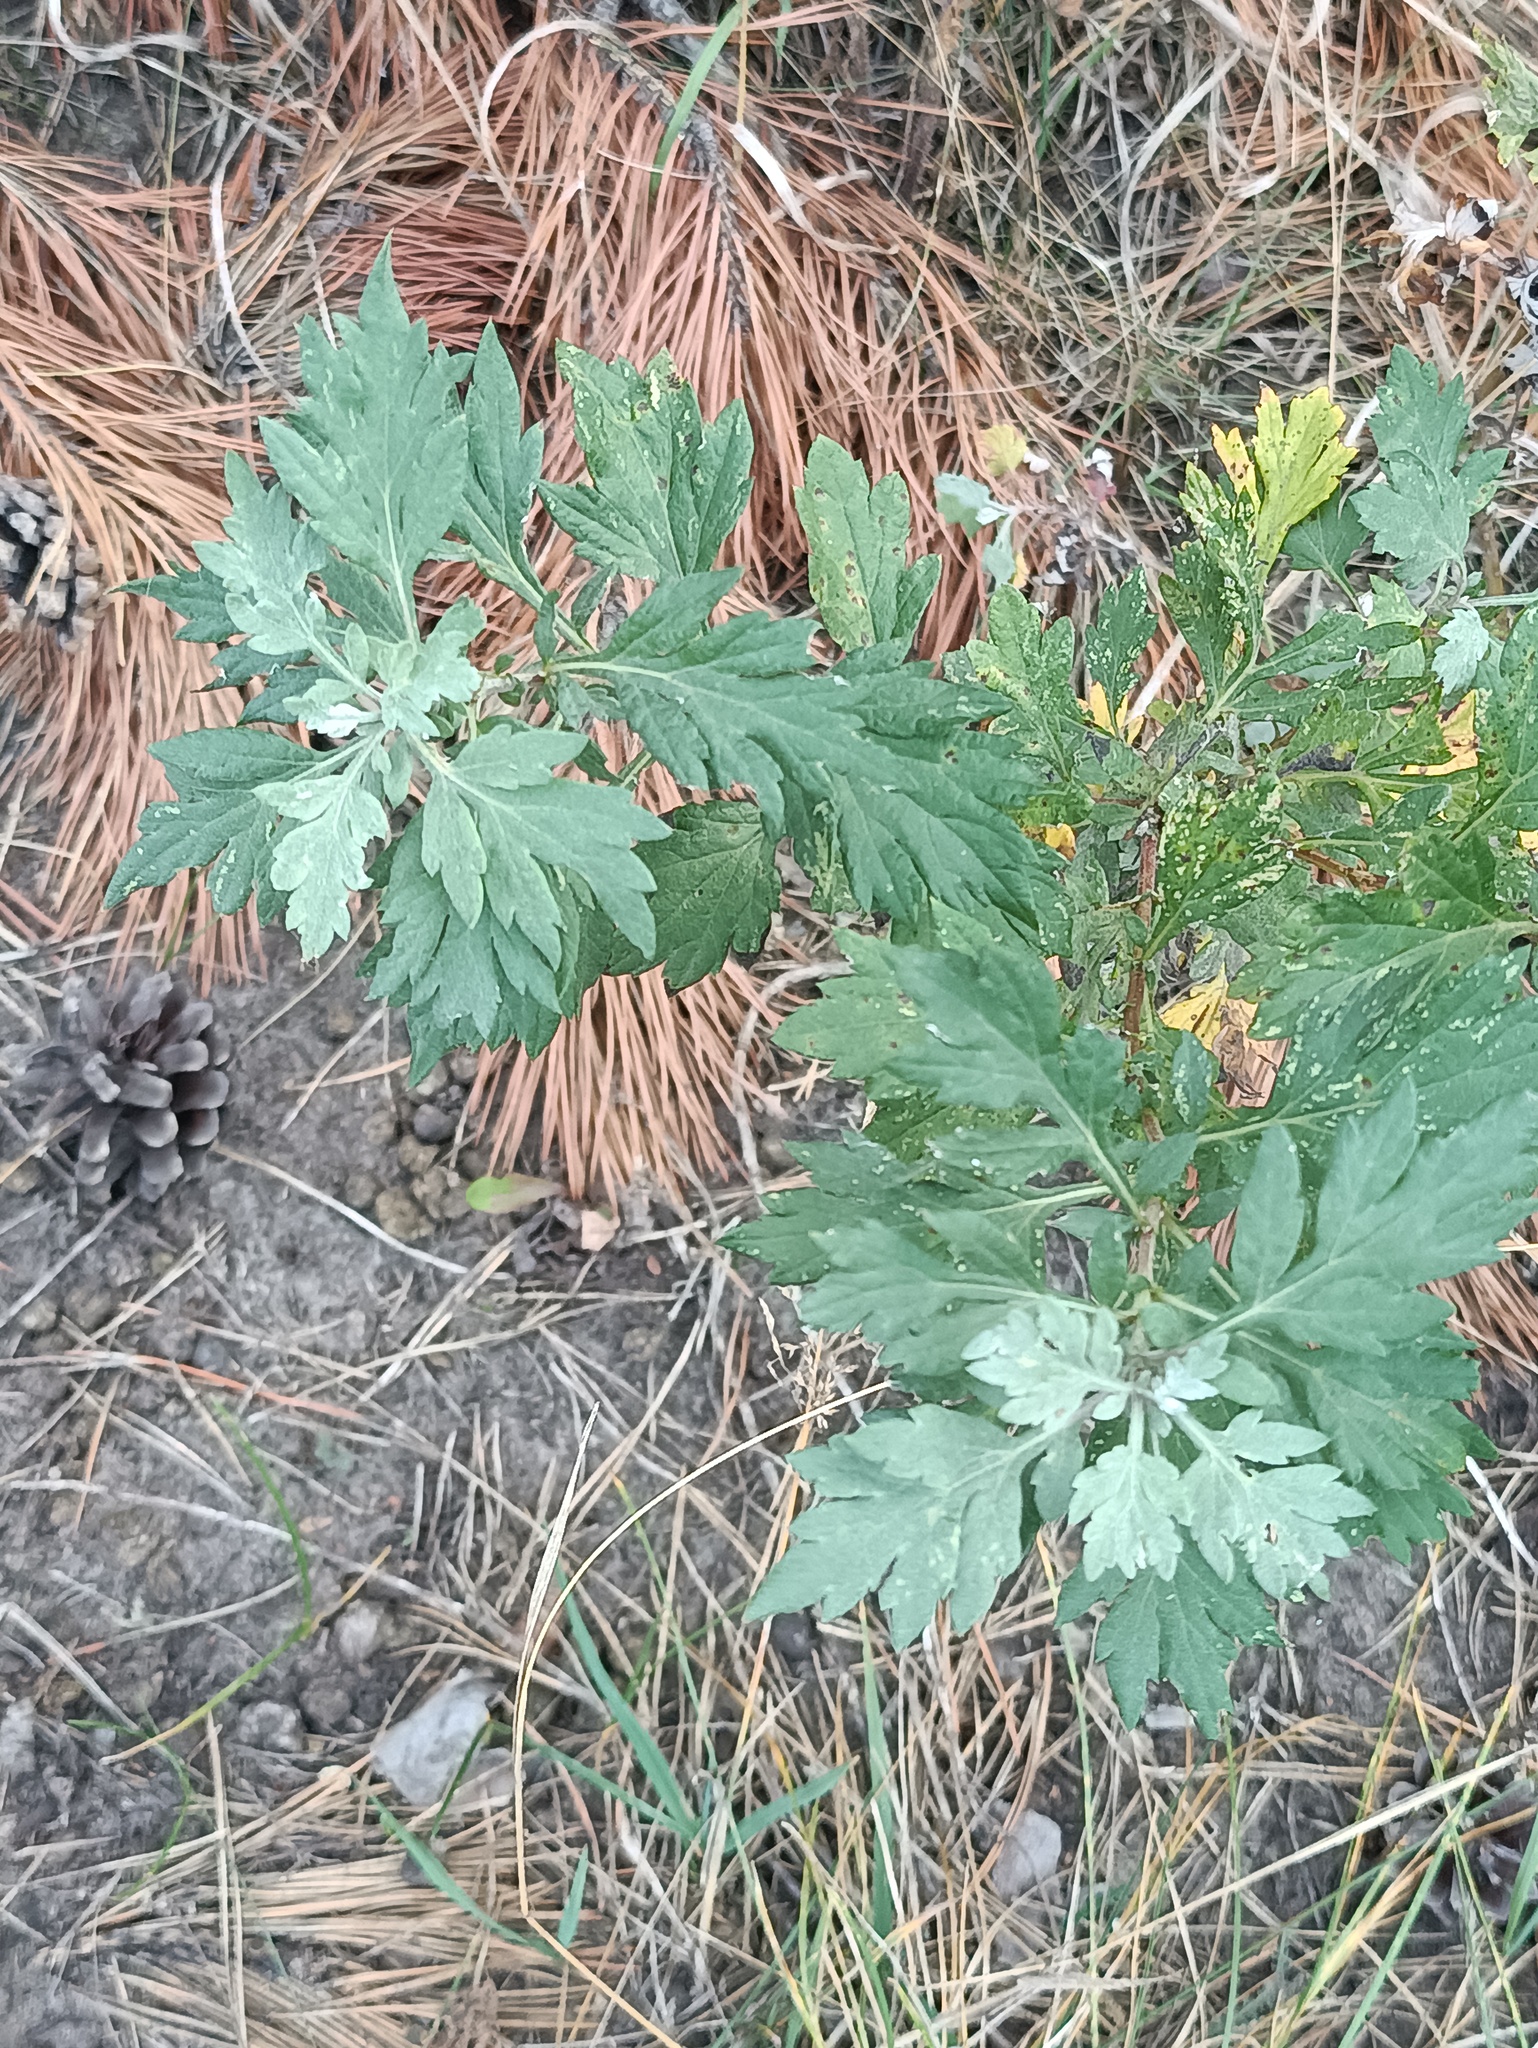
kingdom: Plantae
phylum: Tracheophyta
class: Magnoliopsida
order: Asterales
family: Asteraceae
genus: Artemisia
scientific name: Artemisia vulgaris
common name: Mugwort
